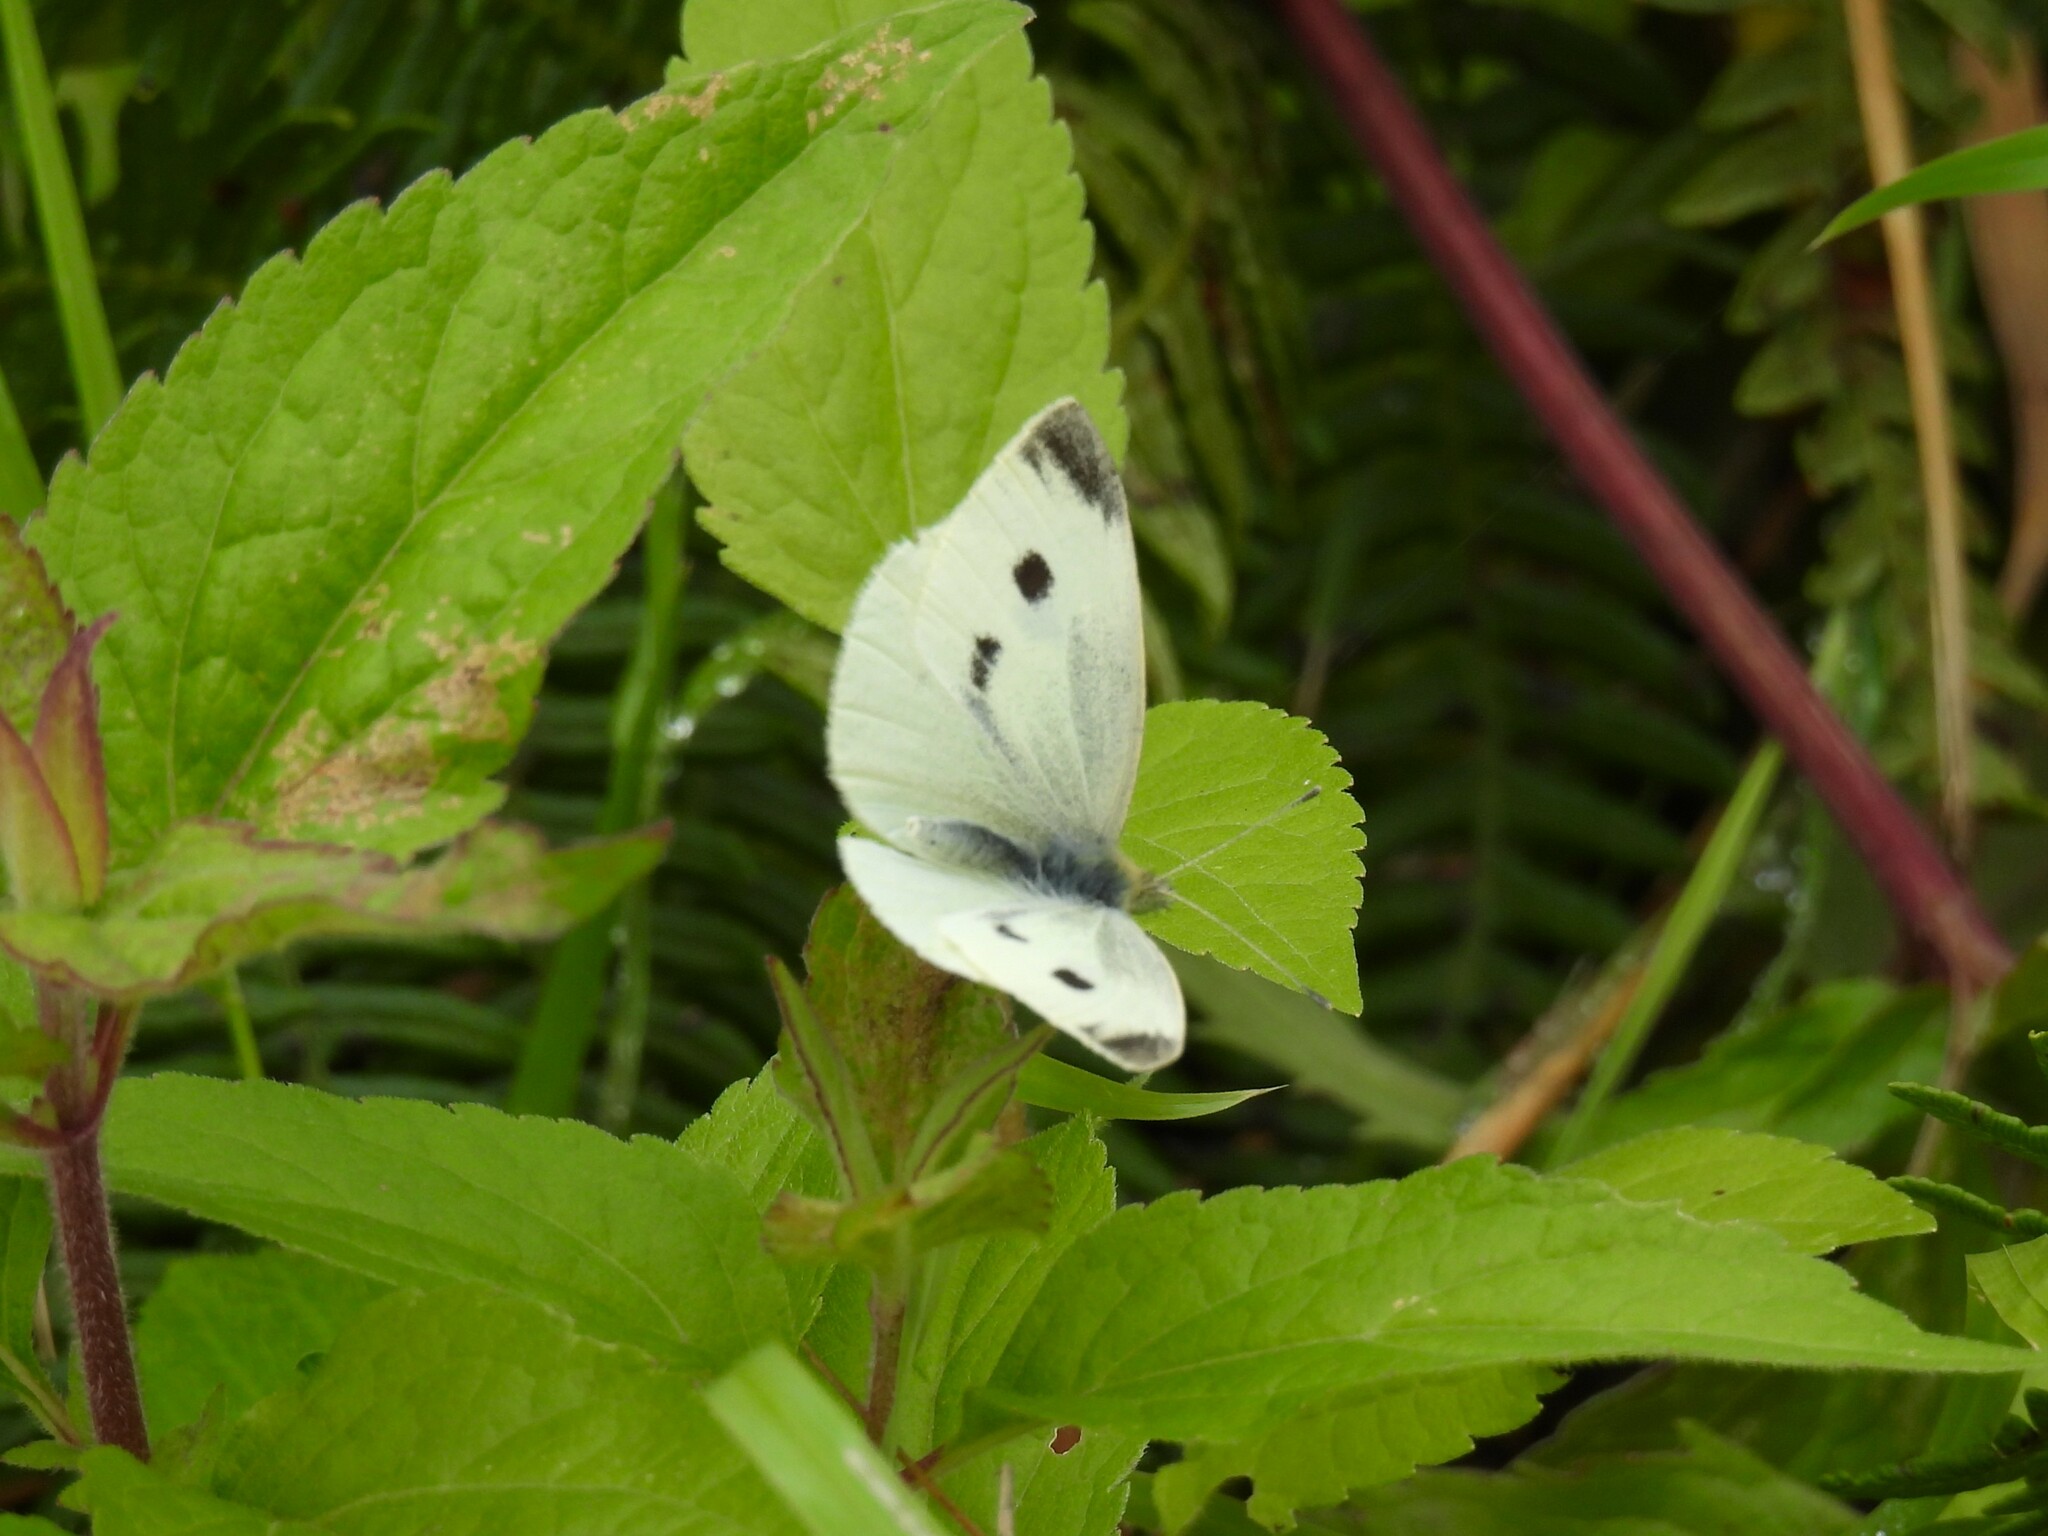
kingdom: Animalia
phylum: Arthropoda
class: Insecta
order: Lepidoptera
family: Pieridae
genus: Pieris
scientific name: Pieris rapae
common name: Small white
